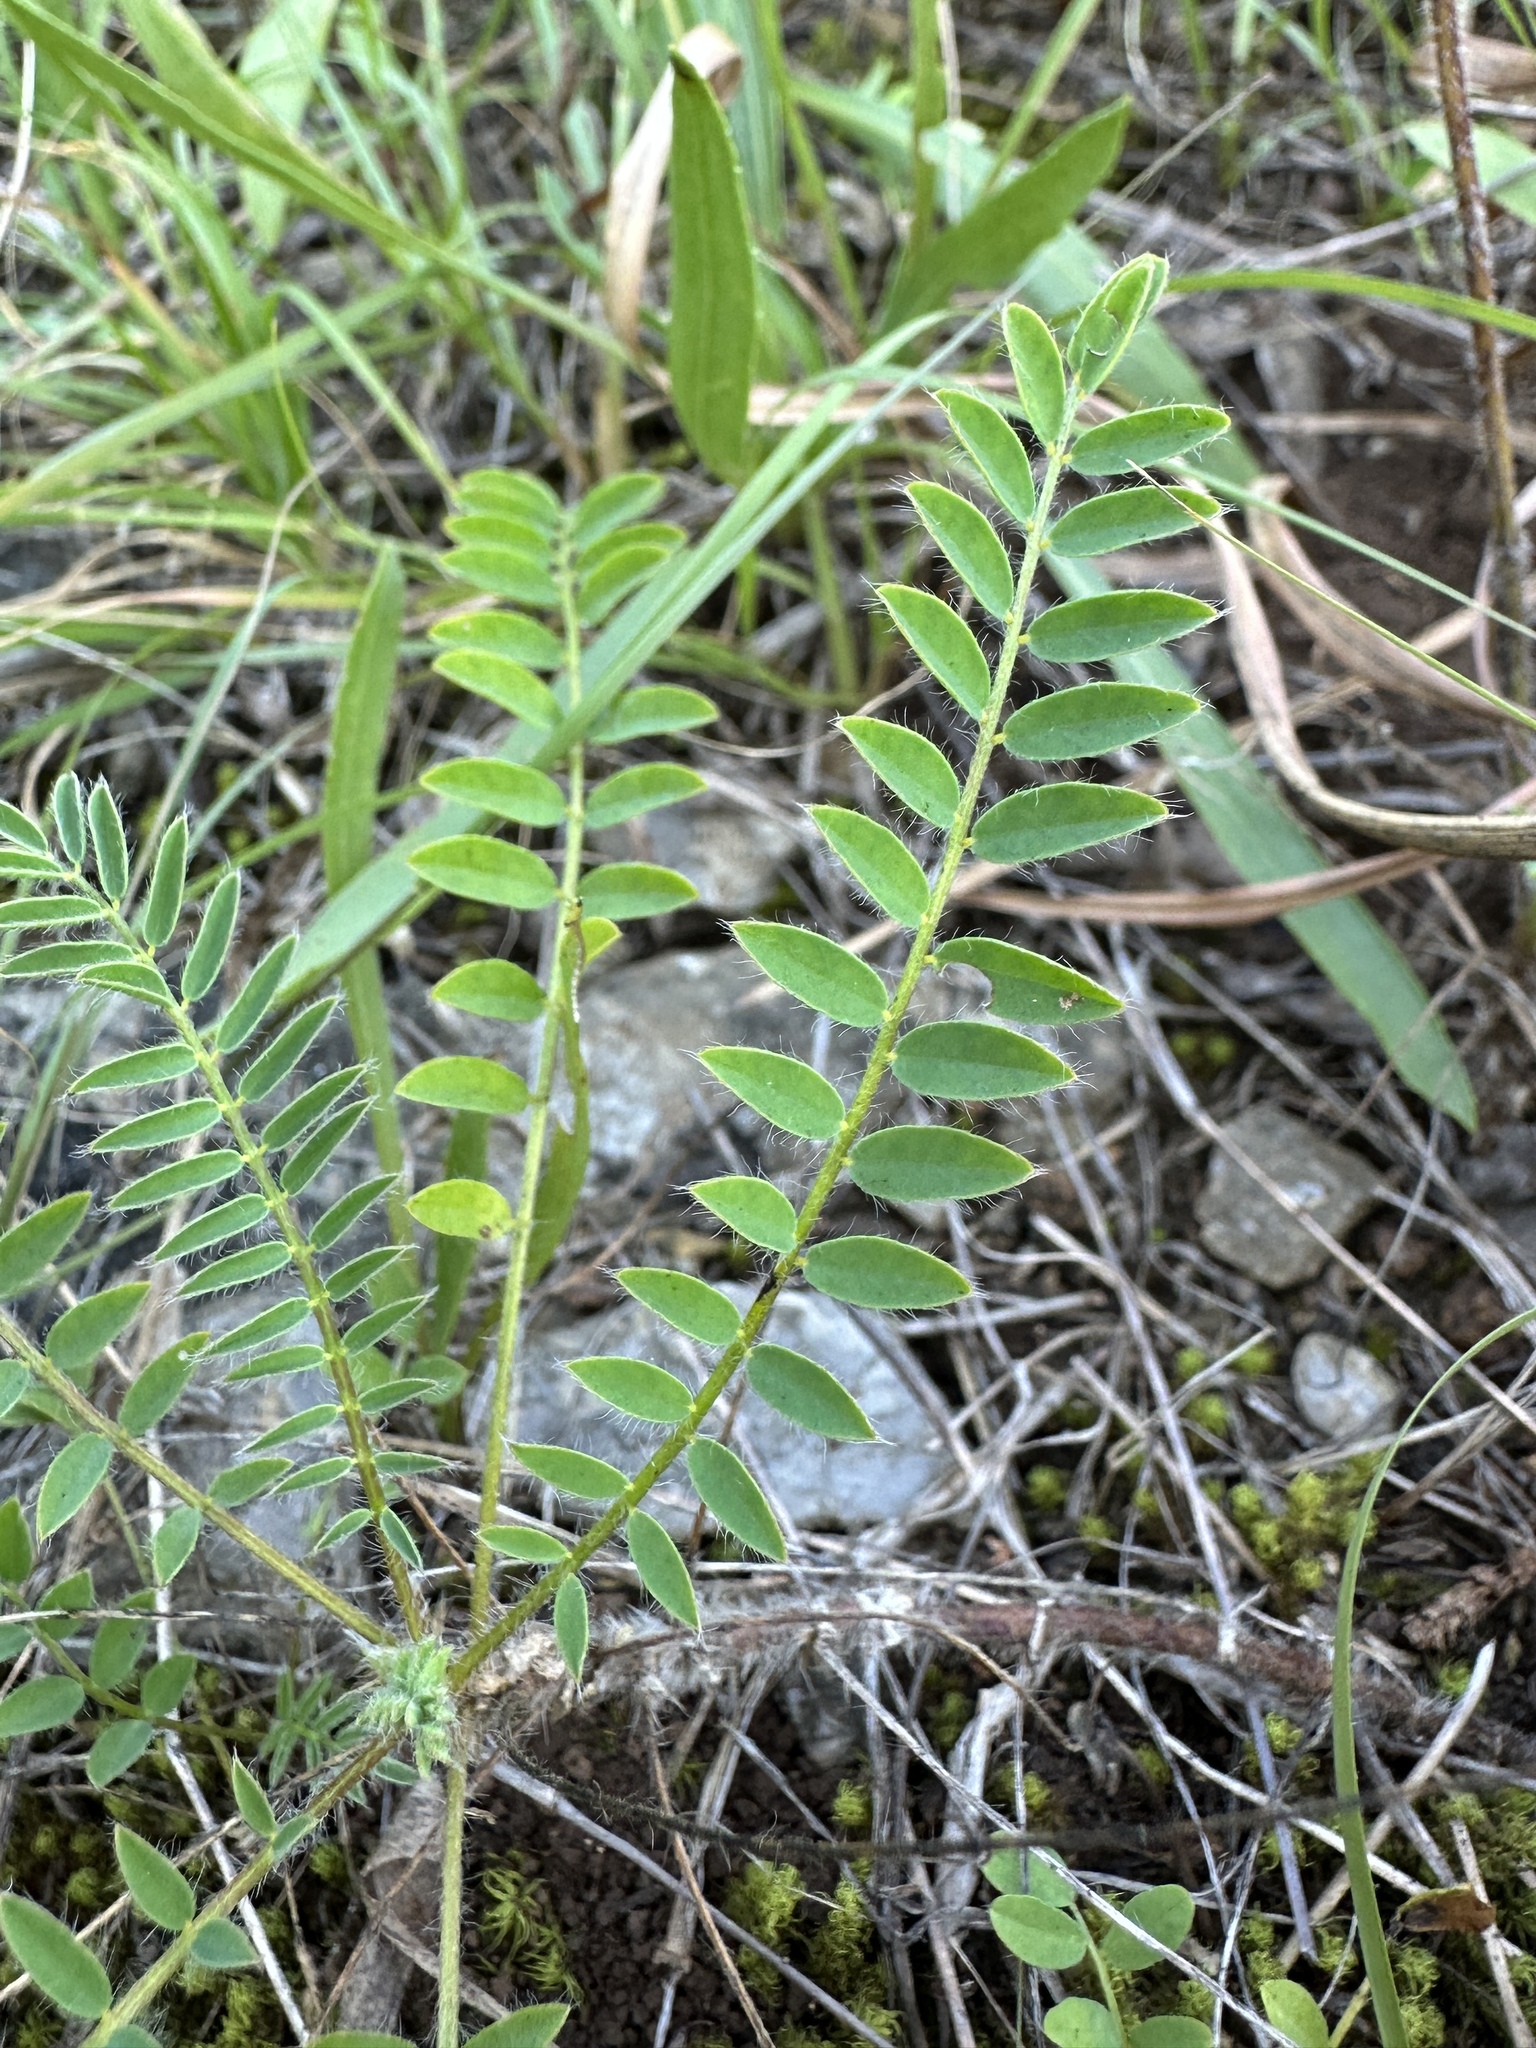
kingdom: Plantae
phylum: Tracheophyta
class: Magnoliopsida
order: Fabales
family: Fabaceae
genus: Astragalus
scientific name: Astragalus tennesseensis
